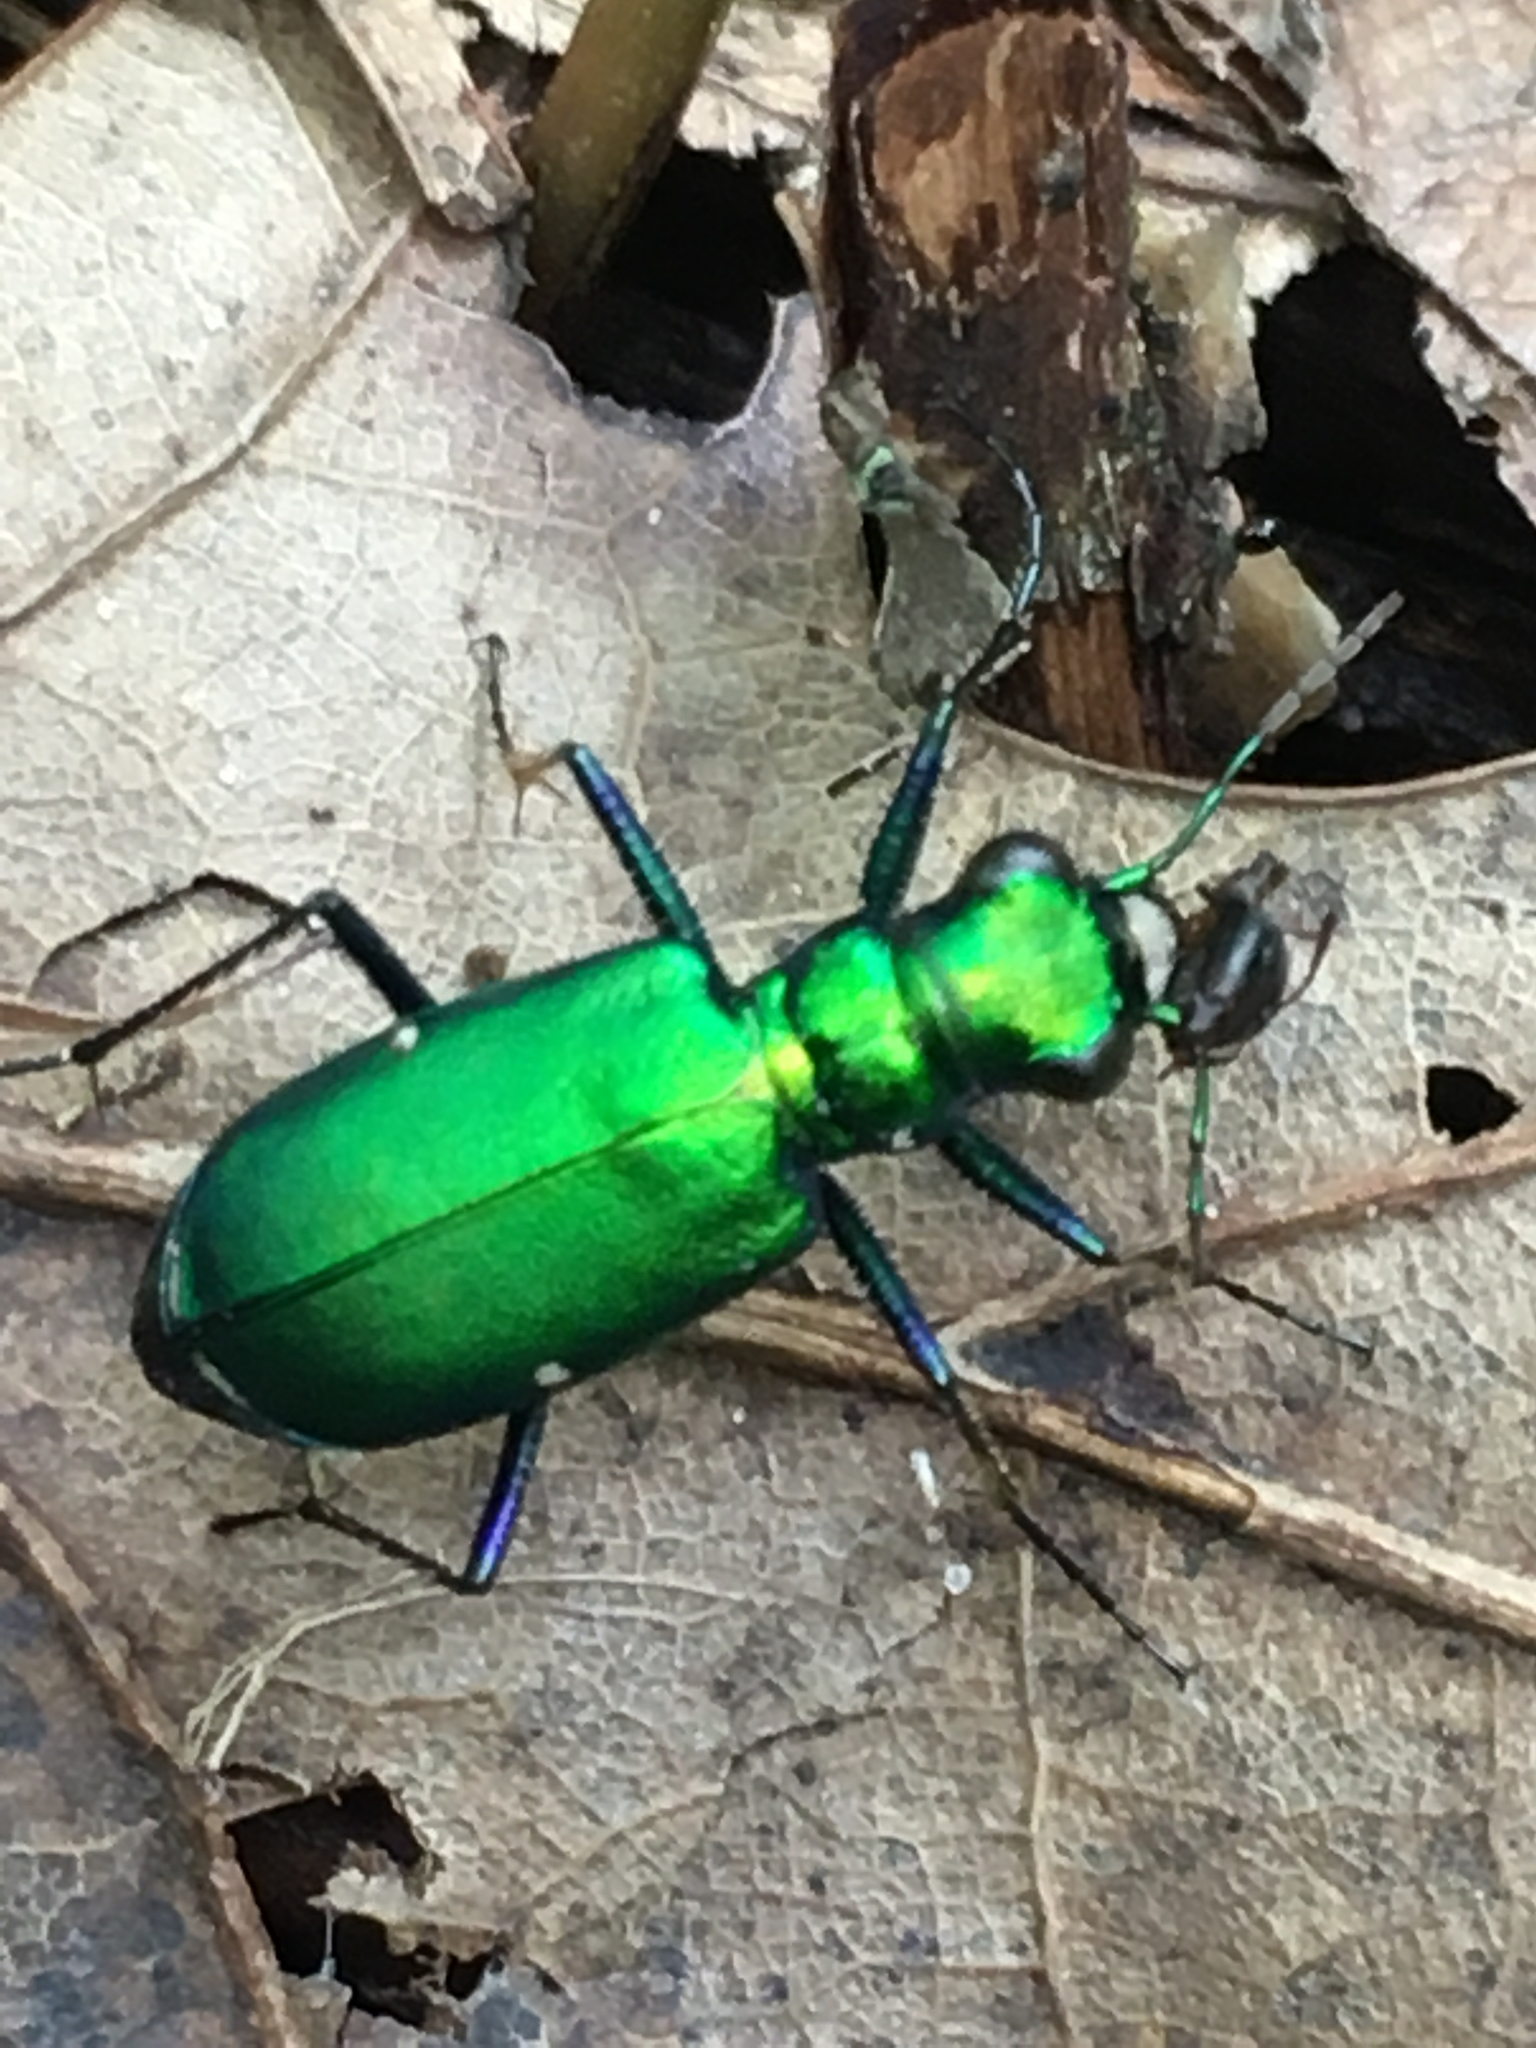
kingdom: Animalia
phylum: Arthropoda
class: Insecta
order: Coleoptera
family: Carabidae
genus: Cicindela
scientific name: Cicindela sexguttata
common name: Six-spotted tiger beetle
